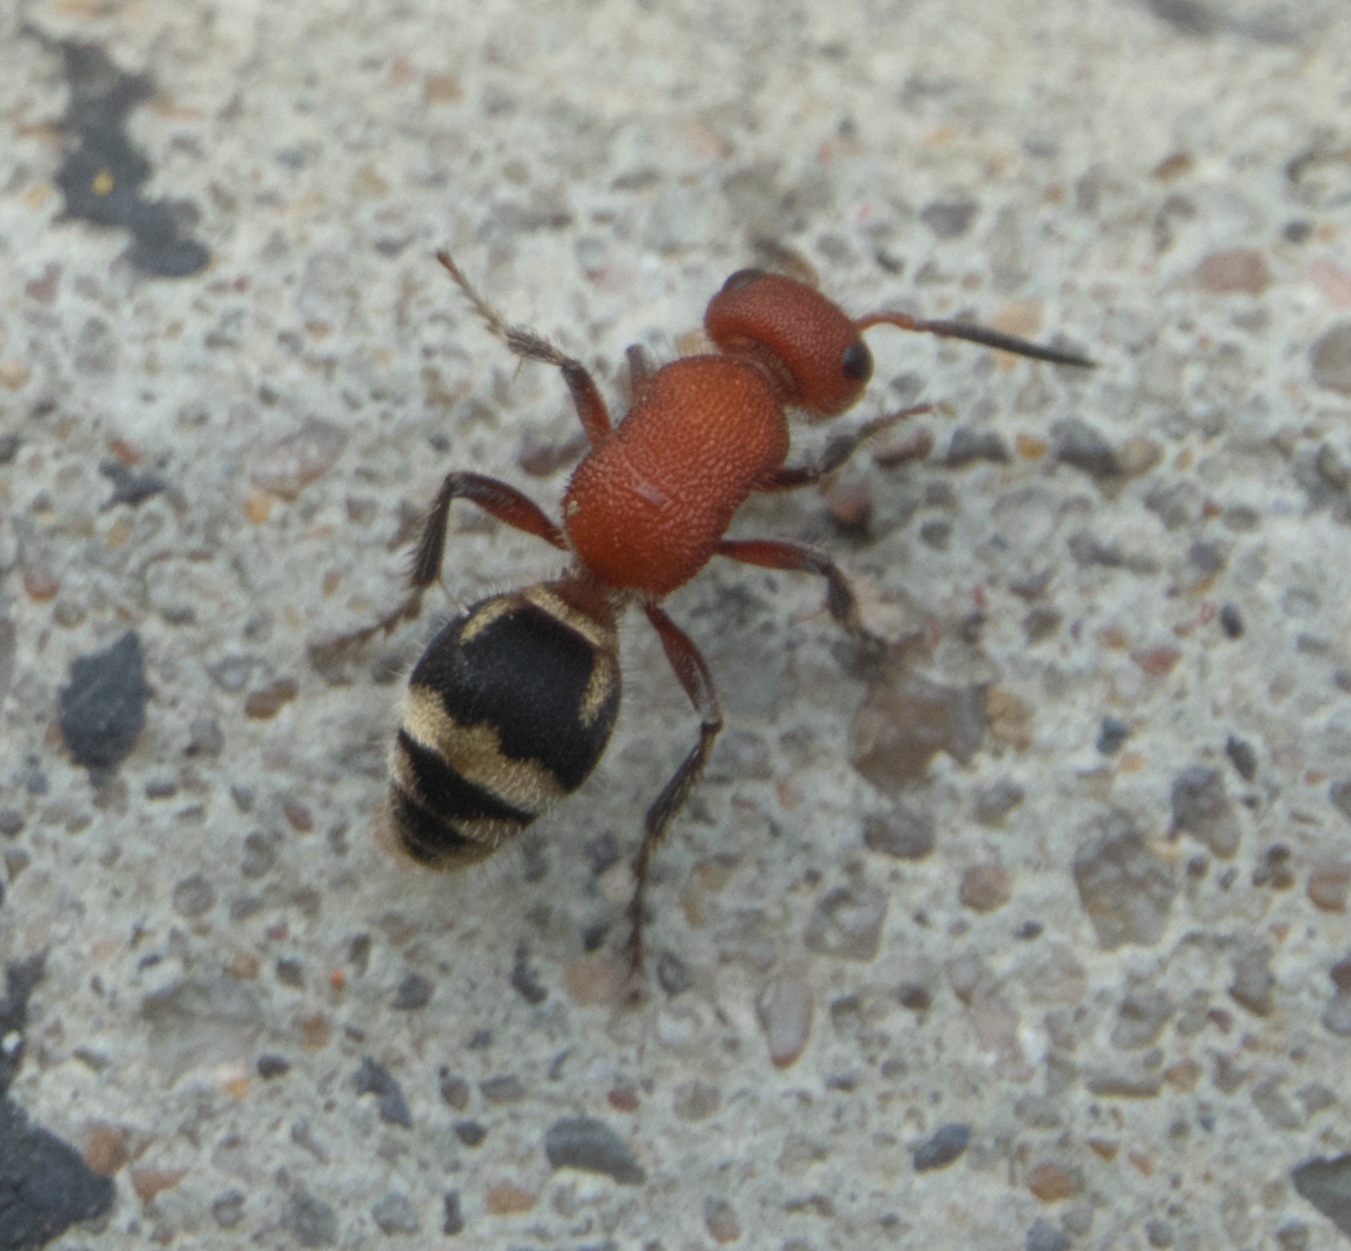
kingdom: Animalia
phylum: Arthropoda
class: Insecta
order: Hymenoptera
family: Mutillidae
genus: Timulla
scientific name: Timulla
